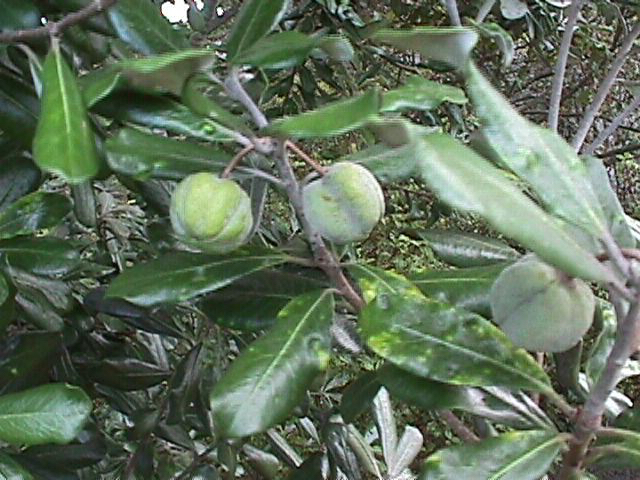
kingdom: Plantae
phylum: Tracheophyta
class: Magnoliopsida
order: Apiales
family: Pittosporaceae
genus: Pittosporum
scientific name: Pittosporum crassifolium
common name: Karo
